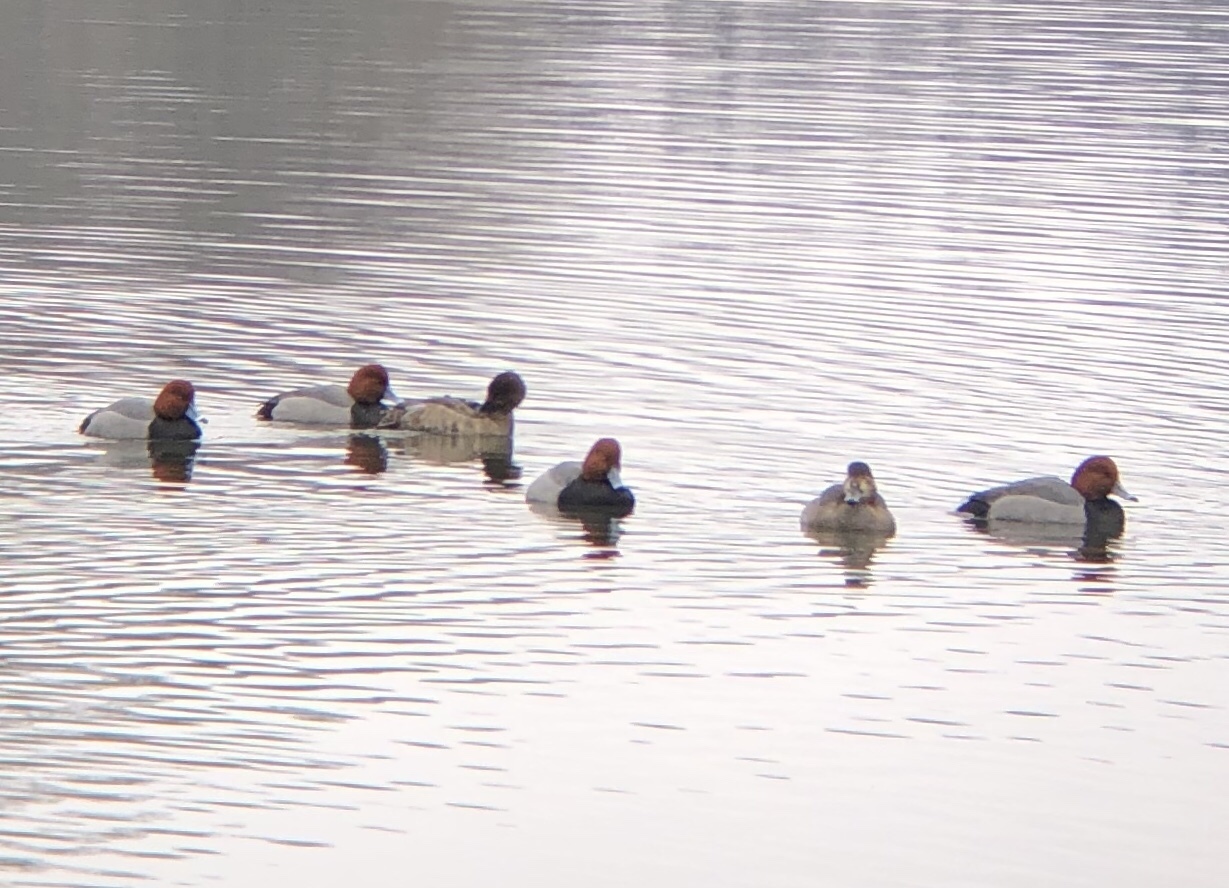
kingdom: Animalia
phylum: Chordata
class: Aves
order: Anseriformes
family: Anatidae
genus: Aythya
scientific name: Aythya americana
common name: Redhead
